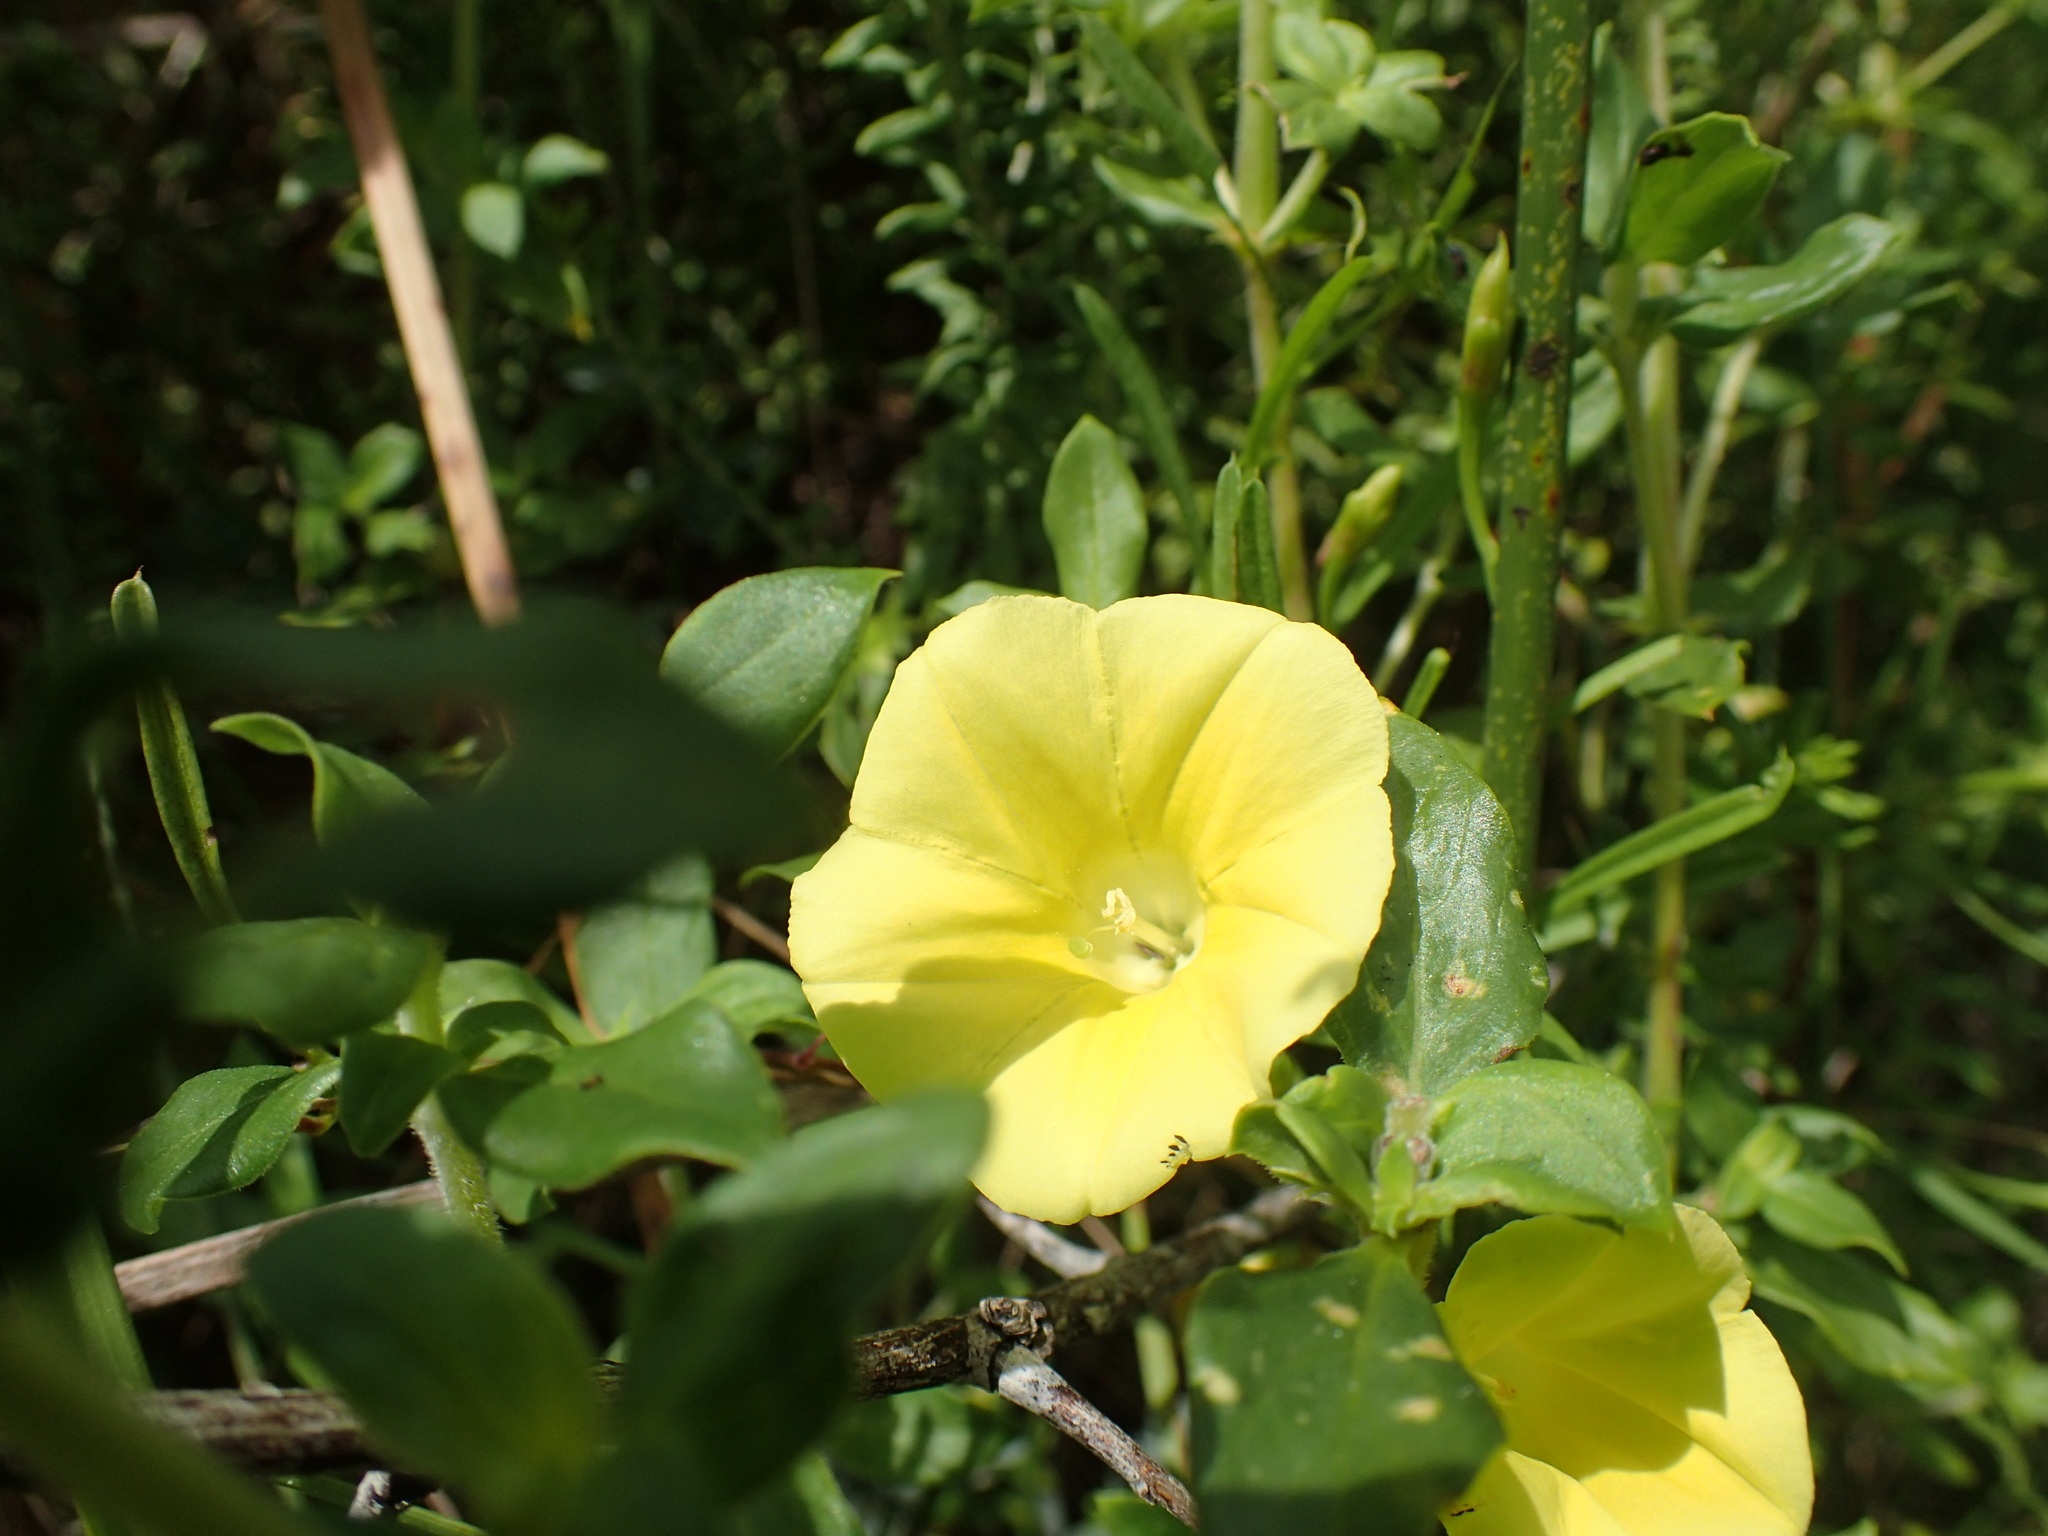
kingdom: Plantae
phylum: Tracheophyta
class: Magnoliopsida
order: Solanales
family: Convolvulaceae
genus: Xenostegia
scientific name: Xenostegia tridentata
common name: African morningvine
